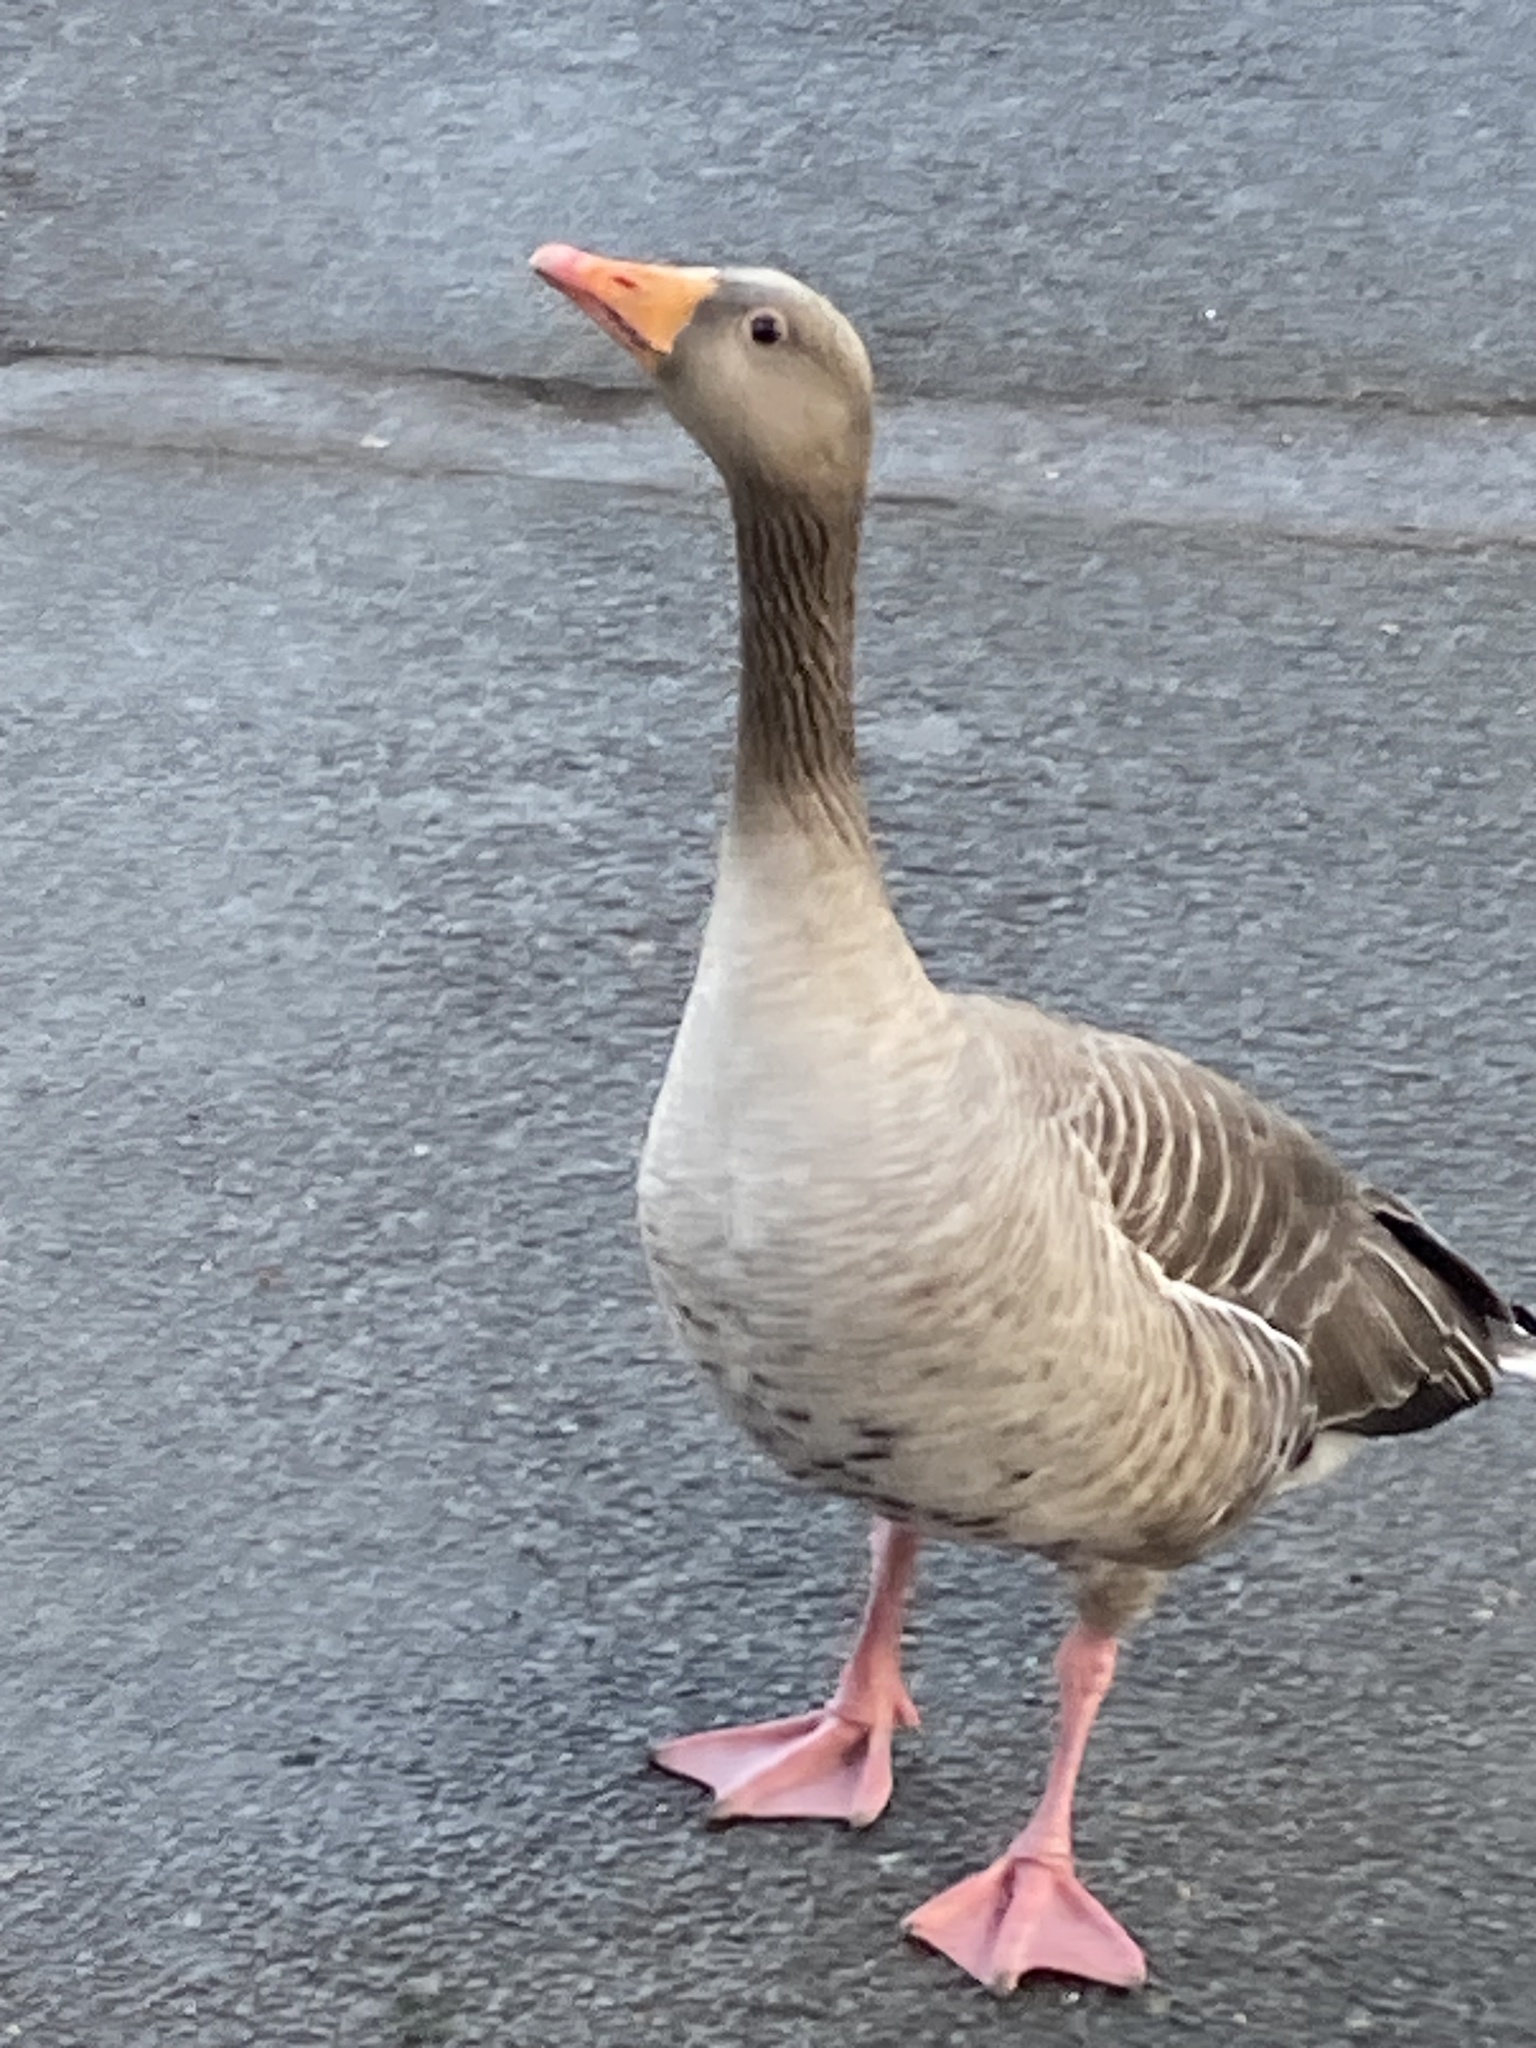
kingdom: Animalia
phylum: Chordata
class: Aves
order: Anseriformes
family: Anatidae
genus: Anser
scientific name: Anser anser
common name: Greylag goose
